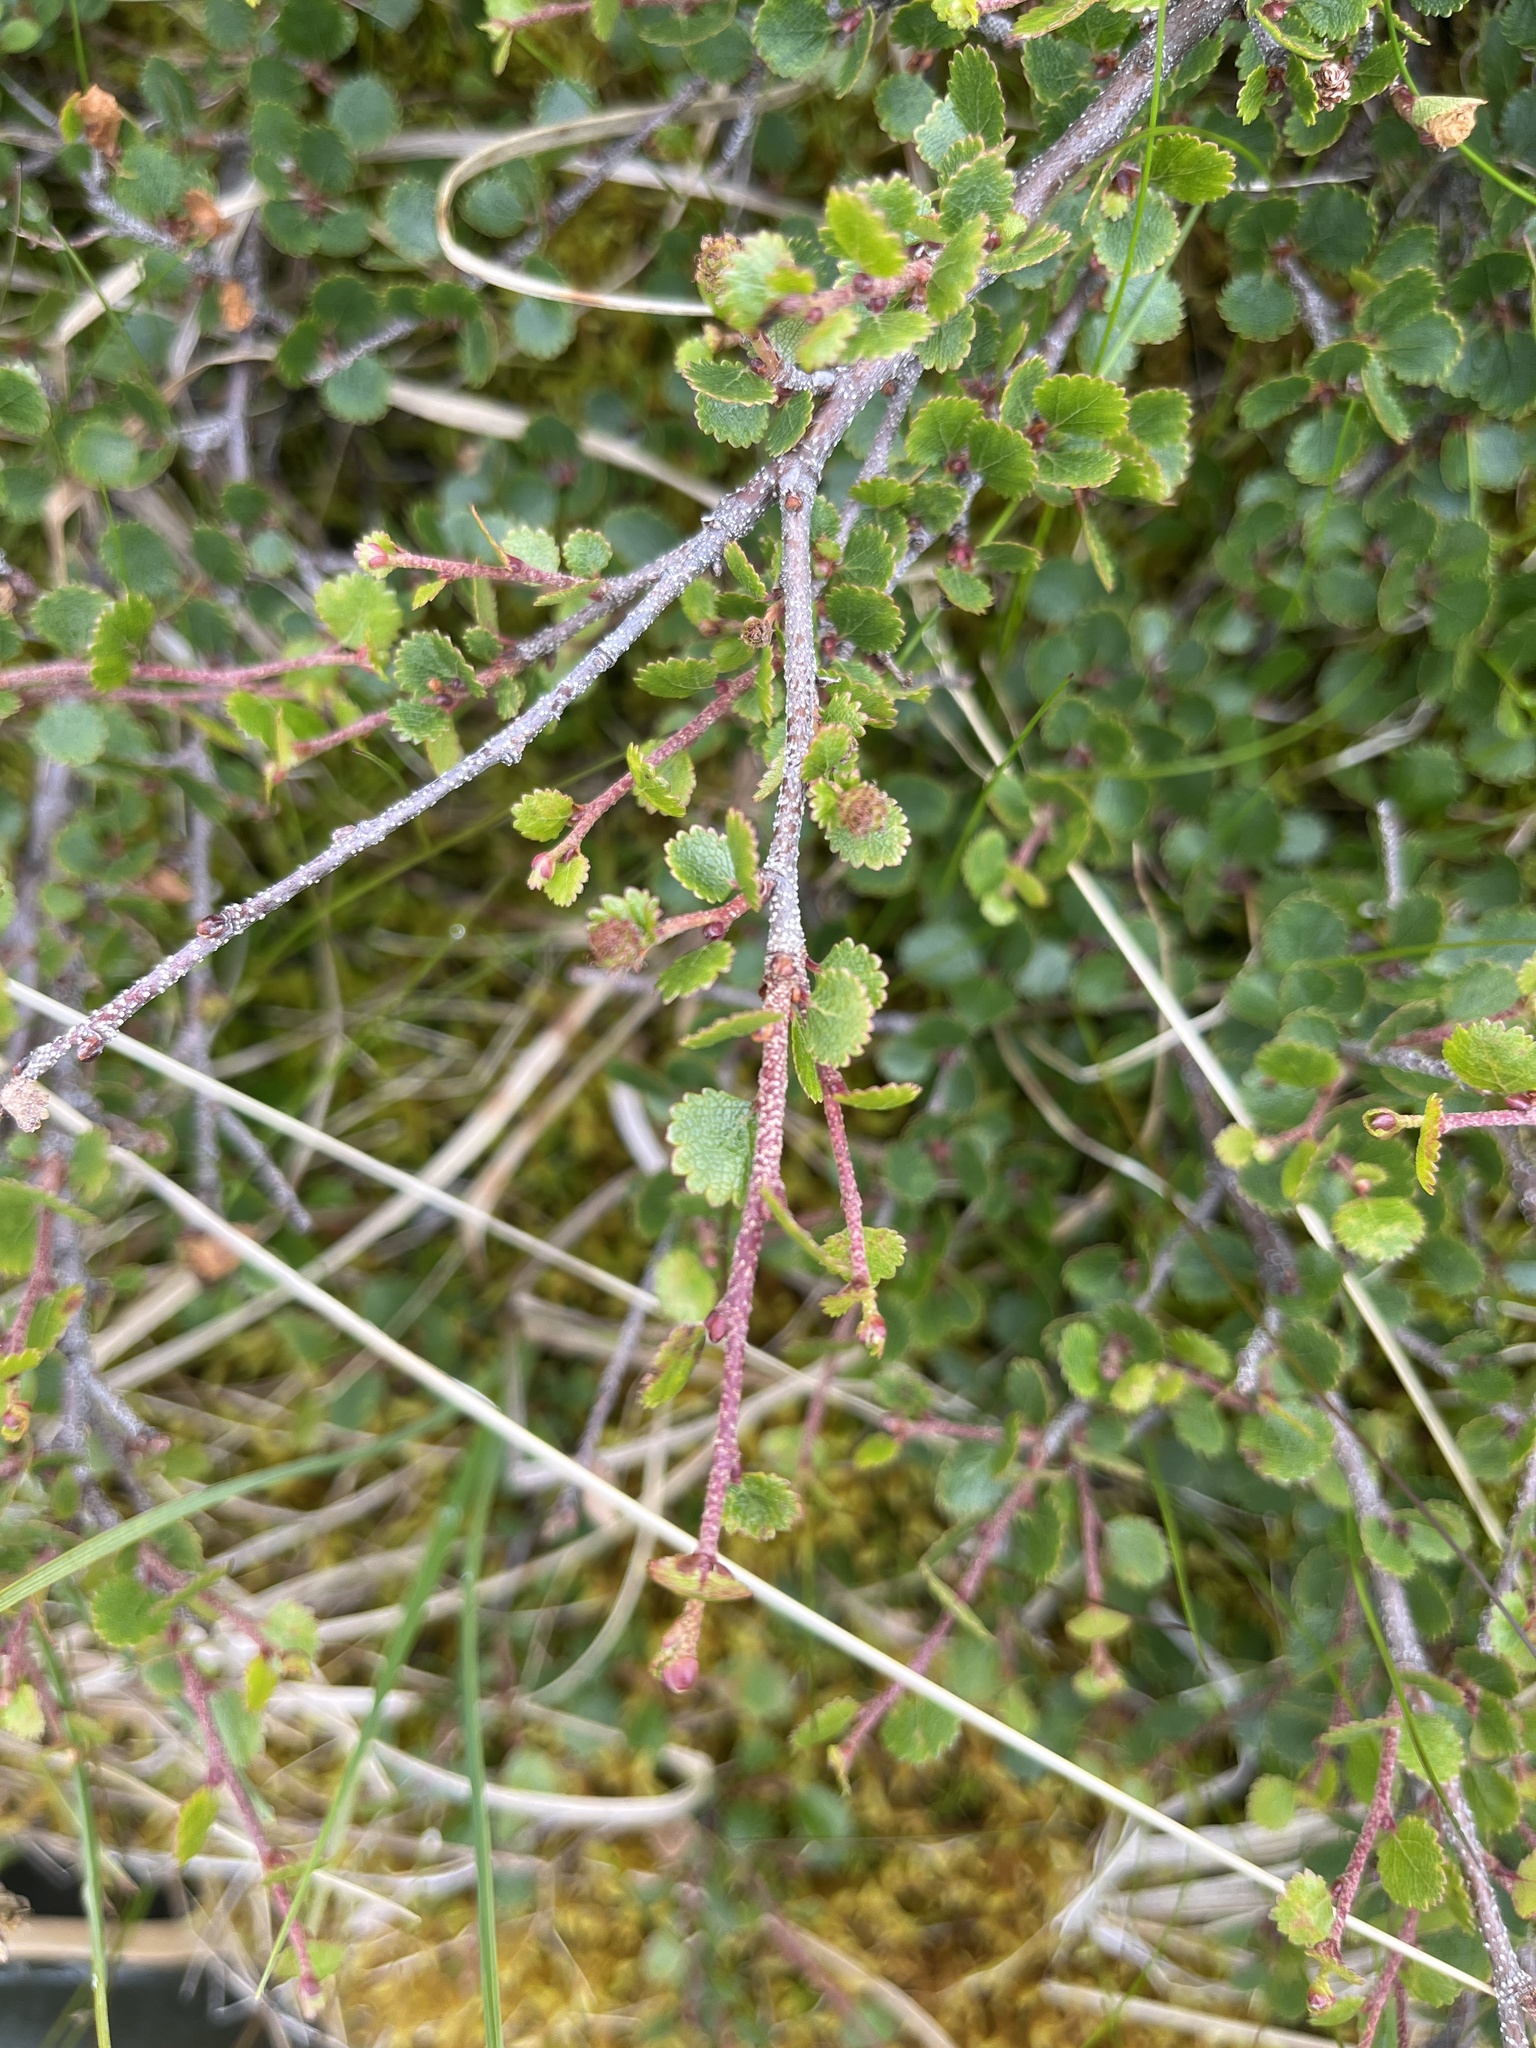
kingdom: Plantae
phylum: Tracheophyta
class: Magnoliopsida
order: Fagales
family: Betulaceae
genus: Betula
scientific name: Betula glandulosa
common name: Dwarf birch
